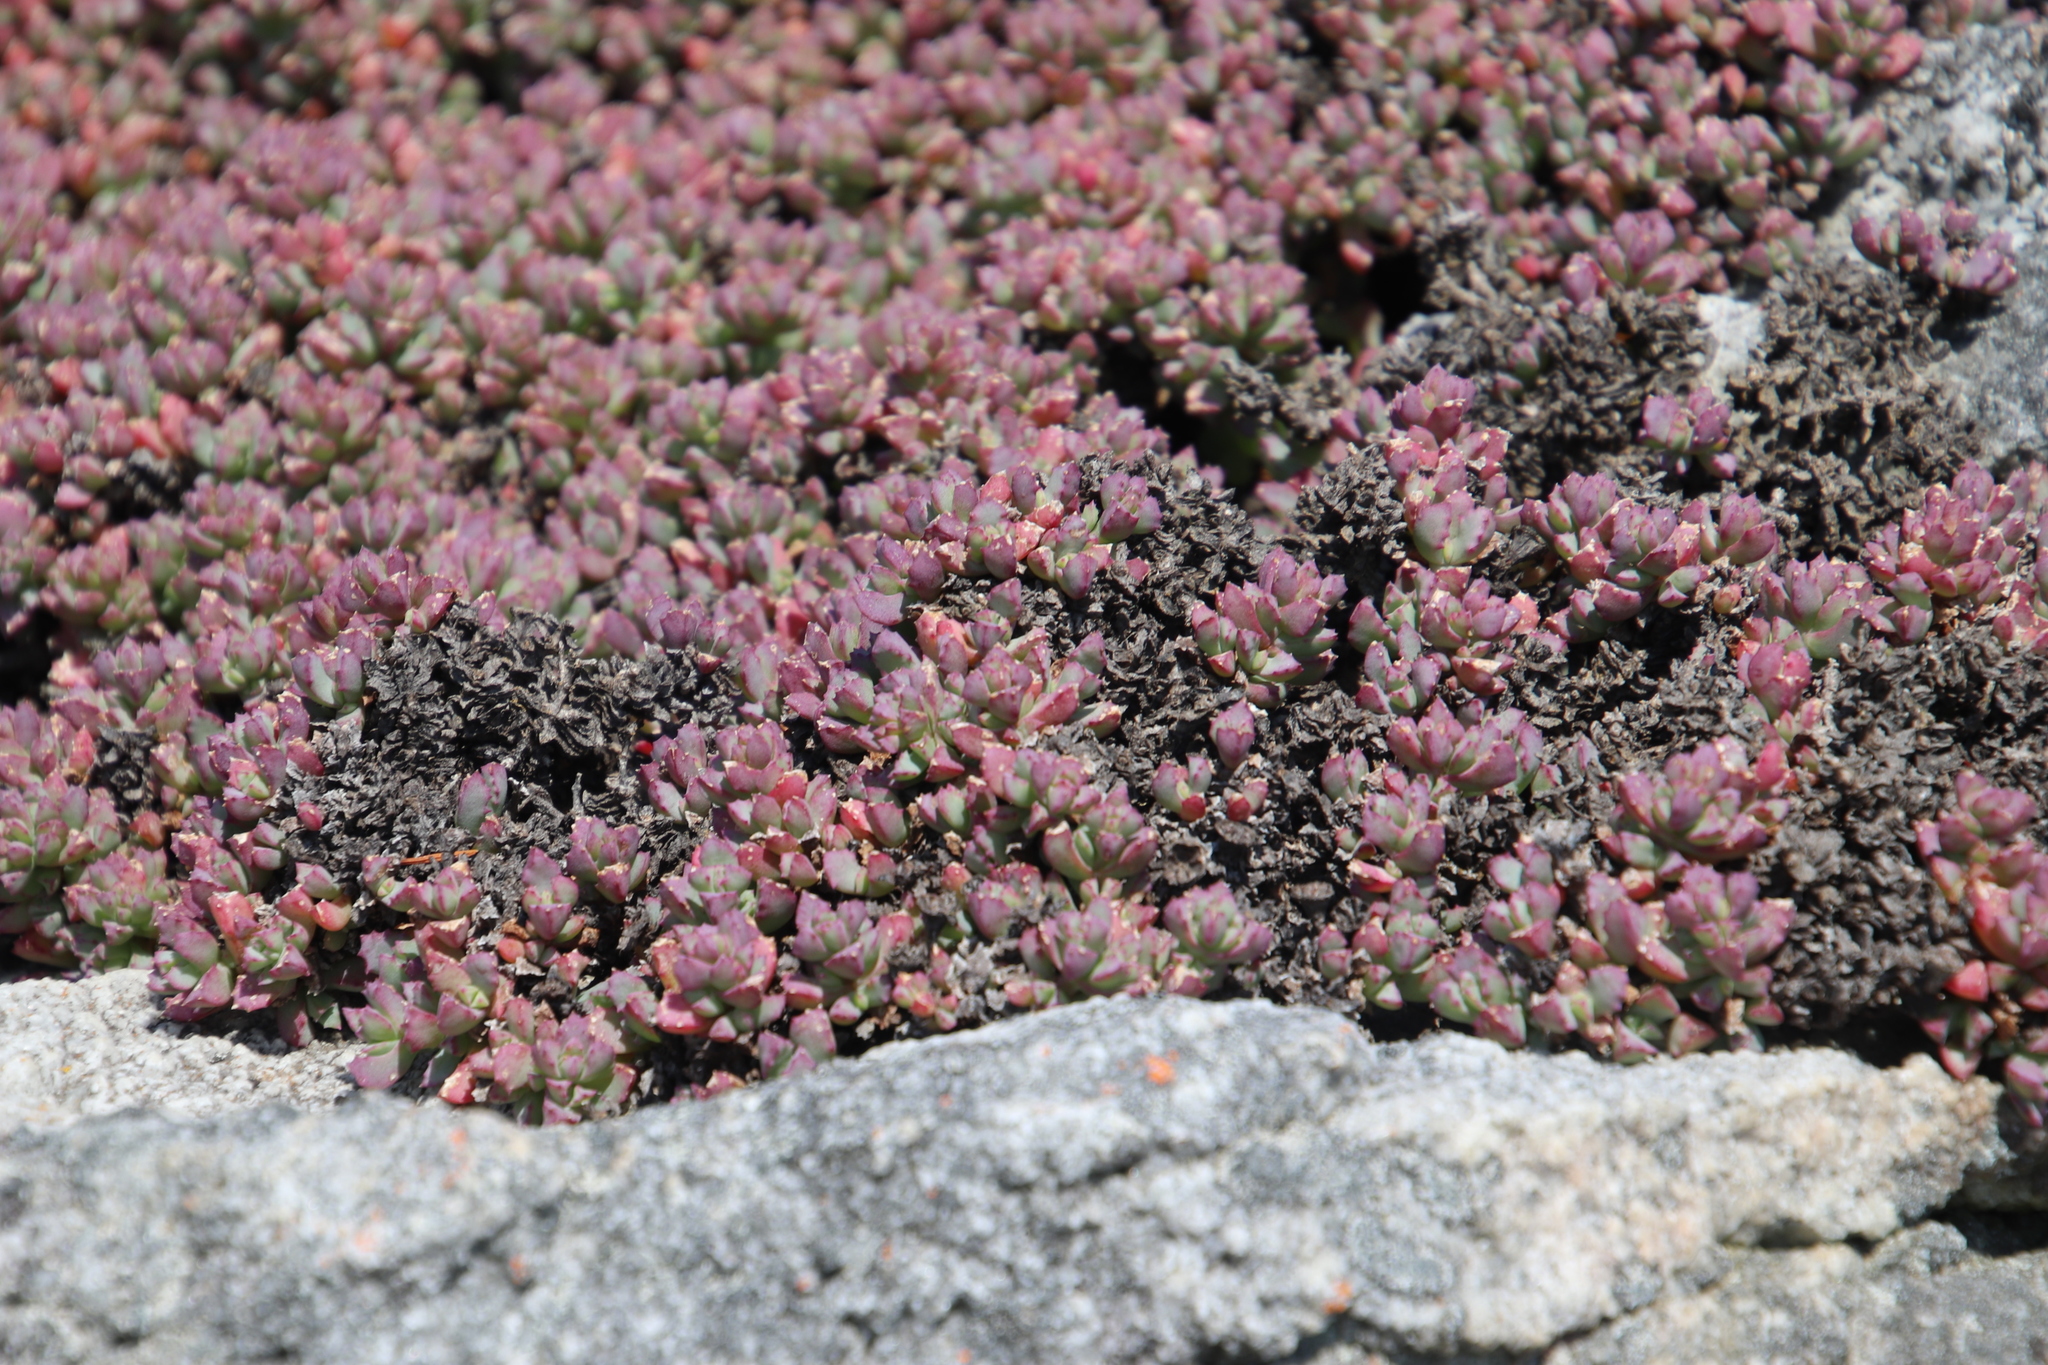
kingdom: Plantae
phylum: Tracheophyta
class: Magnoliopsida
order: Caryophyllales
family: Aizoaceae
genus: Oscularia
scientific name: Oscularia deltoides
